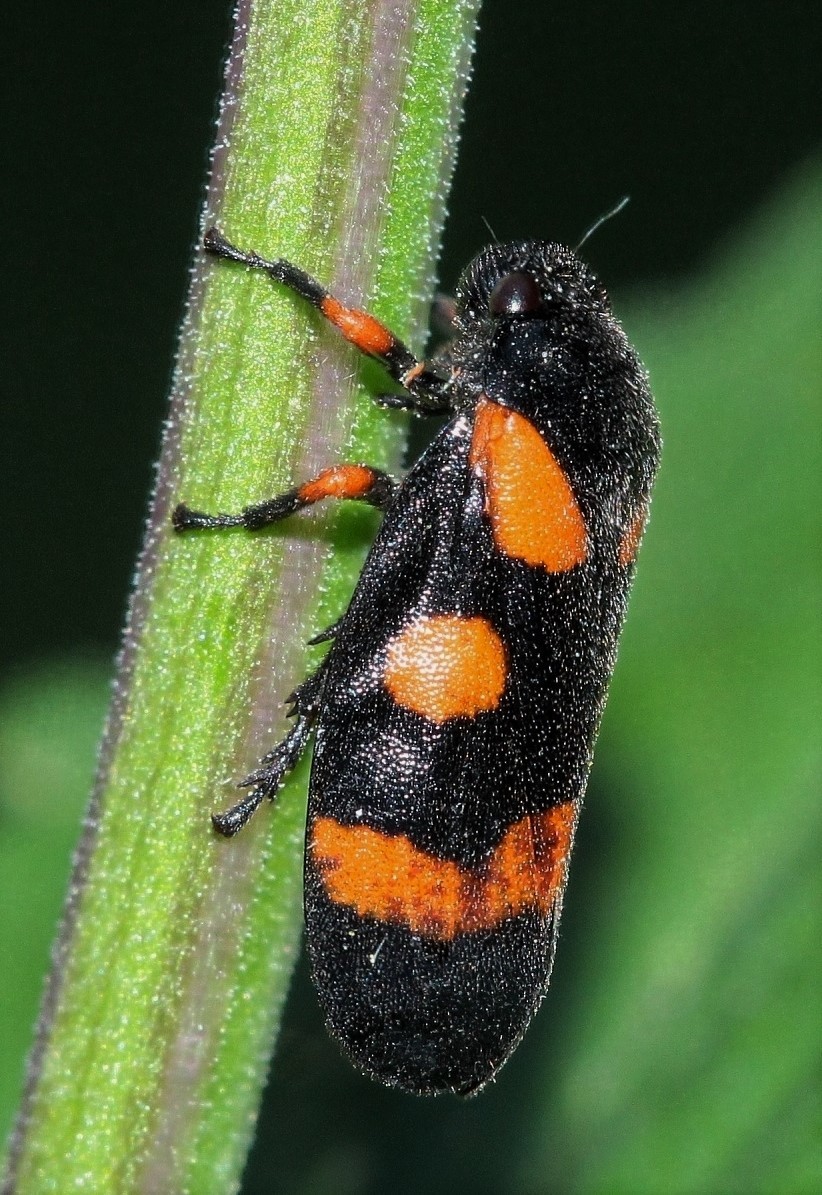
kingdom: Animalia
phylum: Arthropoda
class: Insecta
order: Hemiptera
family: Cercopidae
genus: Cercopis
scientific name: Cercopis intermedia
